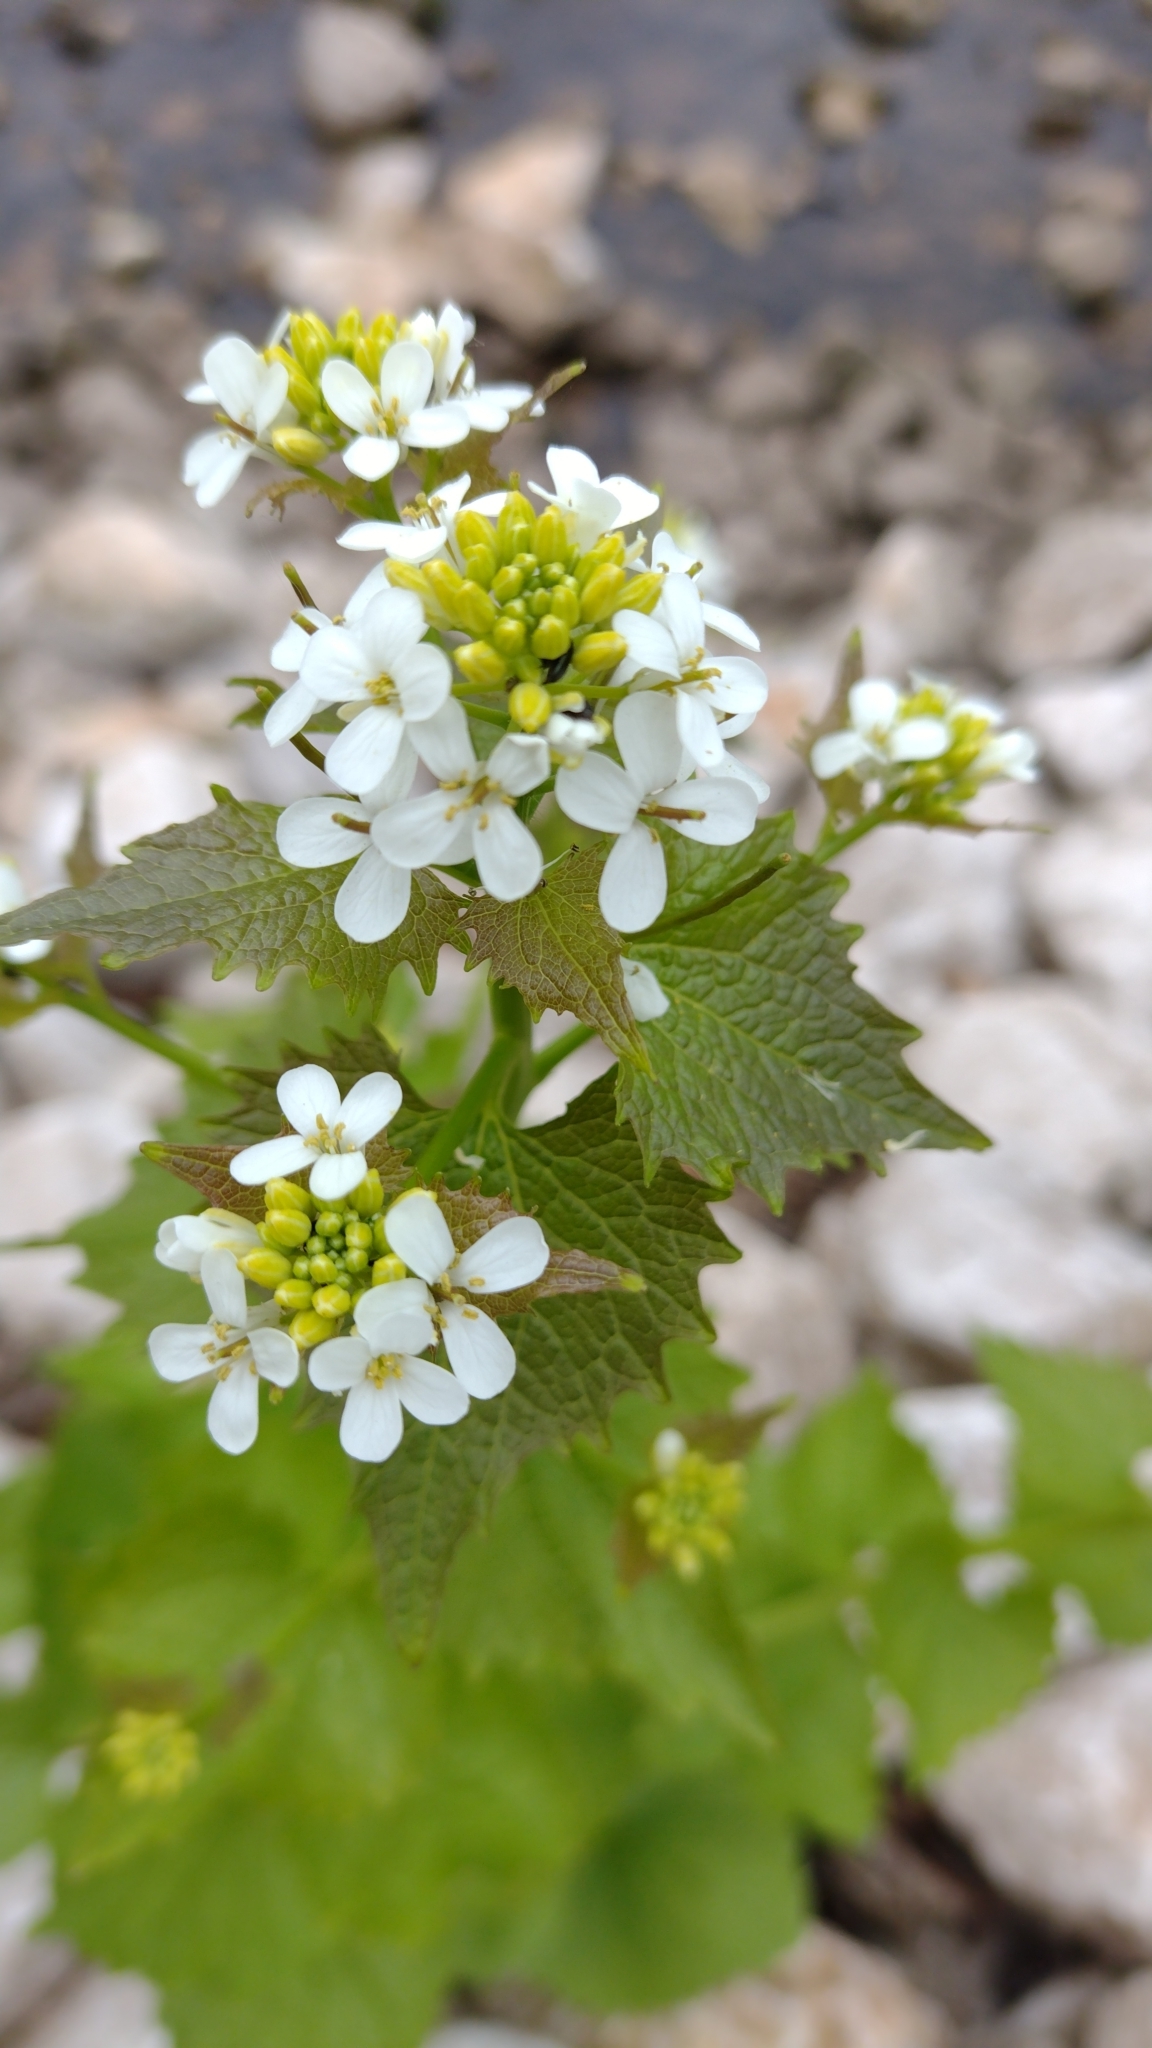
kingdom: Plantae
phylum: Tracheophyta
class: Magnoliopsida
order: Brassicales
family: Brassicaceae
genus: Alliaria
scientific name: Alliaria petiolata
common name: Garlic mustard
